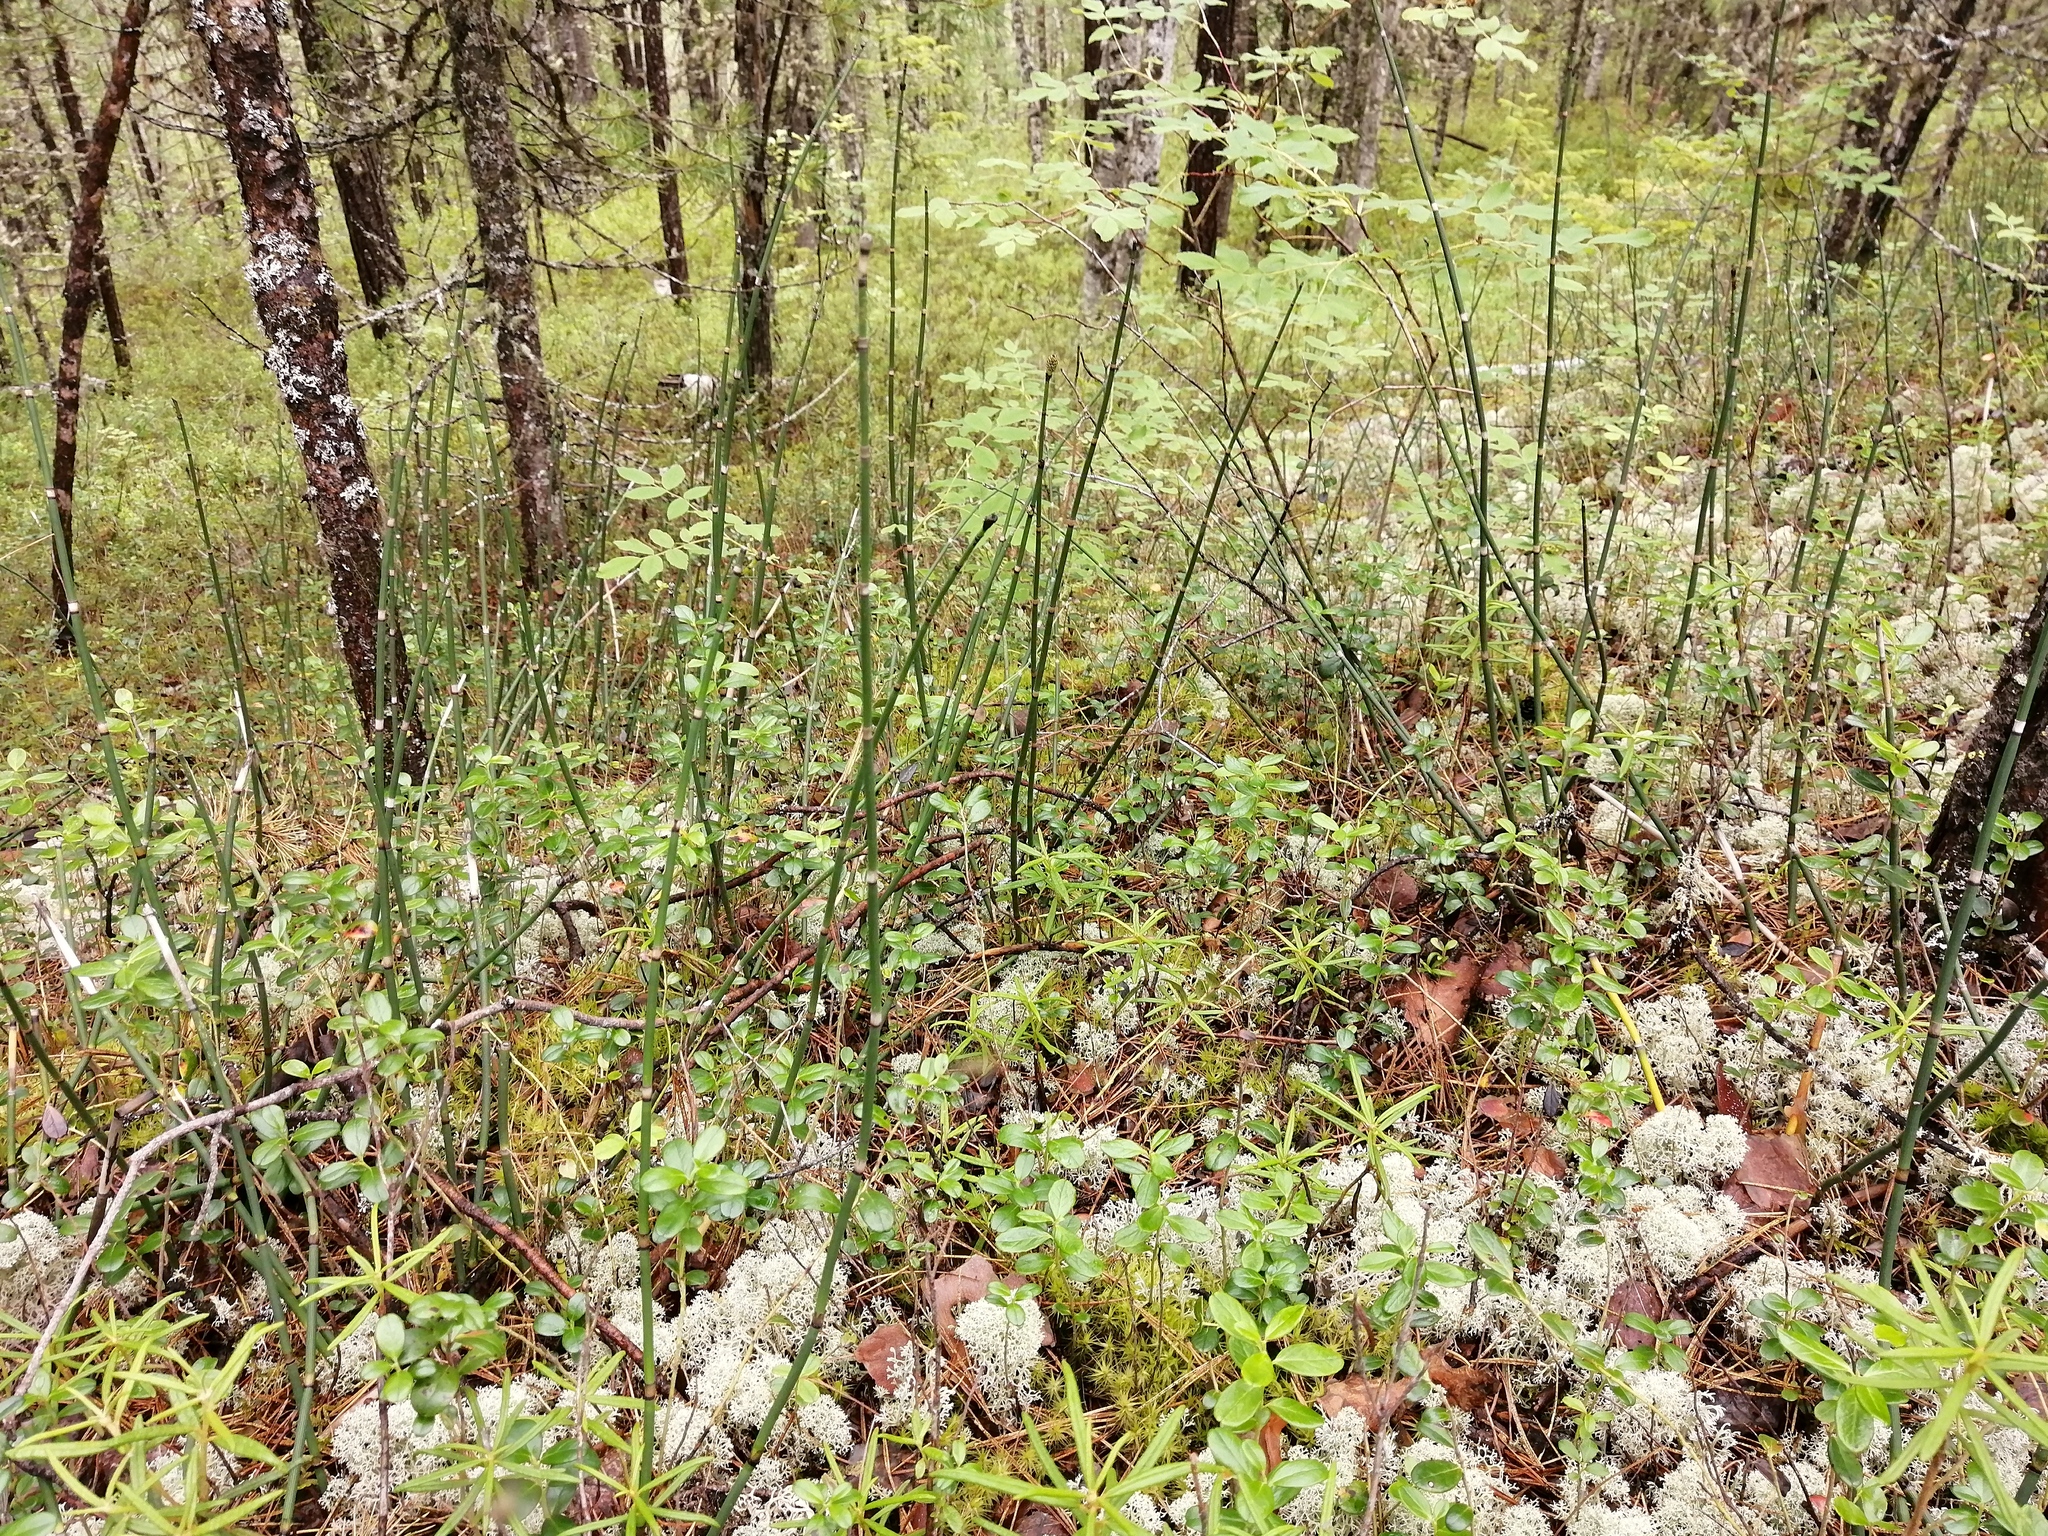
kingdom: Plantae
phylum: Tracheophyta
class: Polypodiopsida
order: Equisetales
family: Equisetaceae
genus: Equisetum
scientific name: Equisetum hyemale
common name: Rough horsetail
